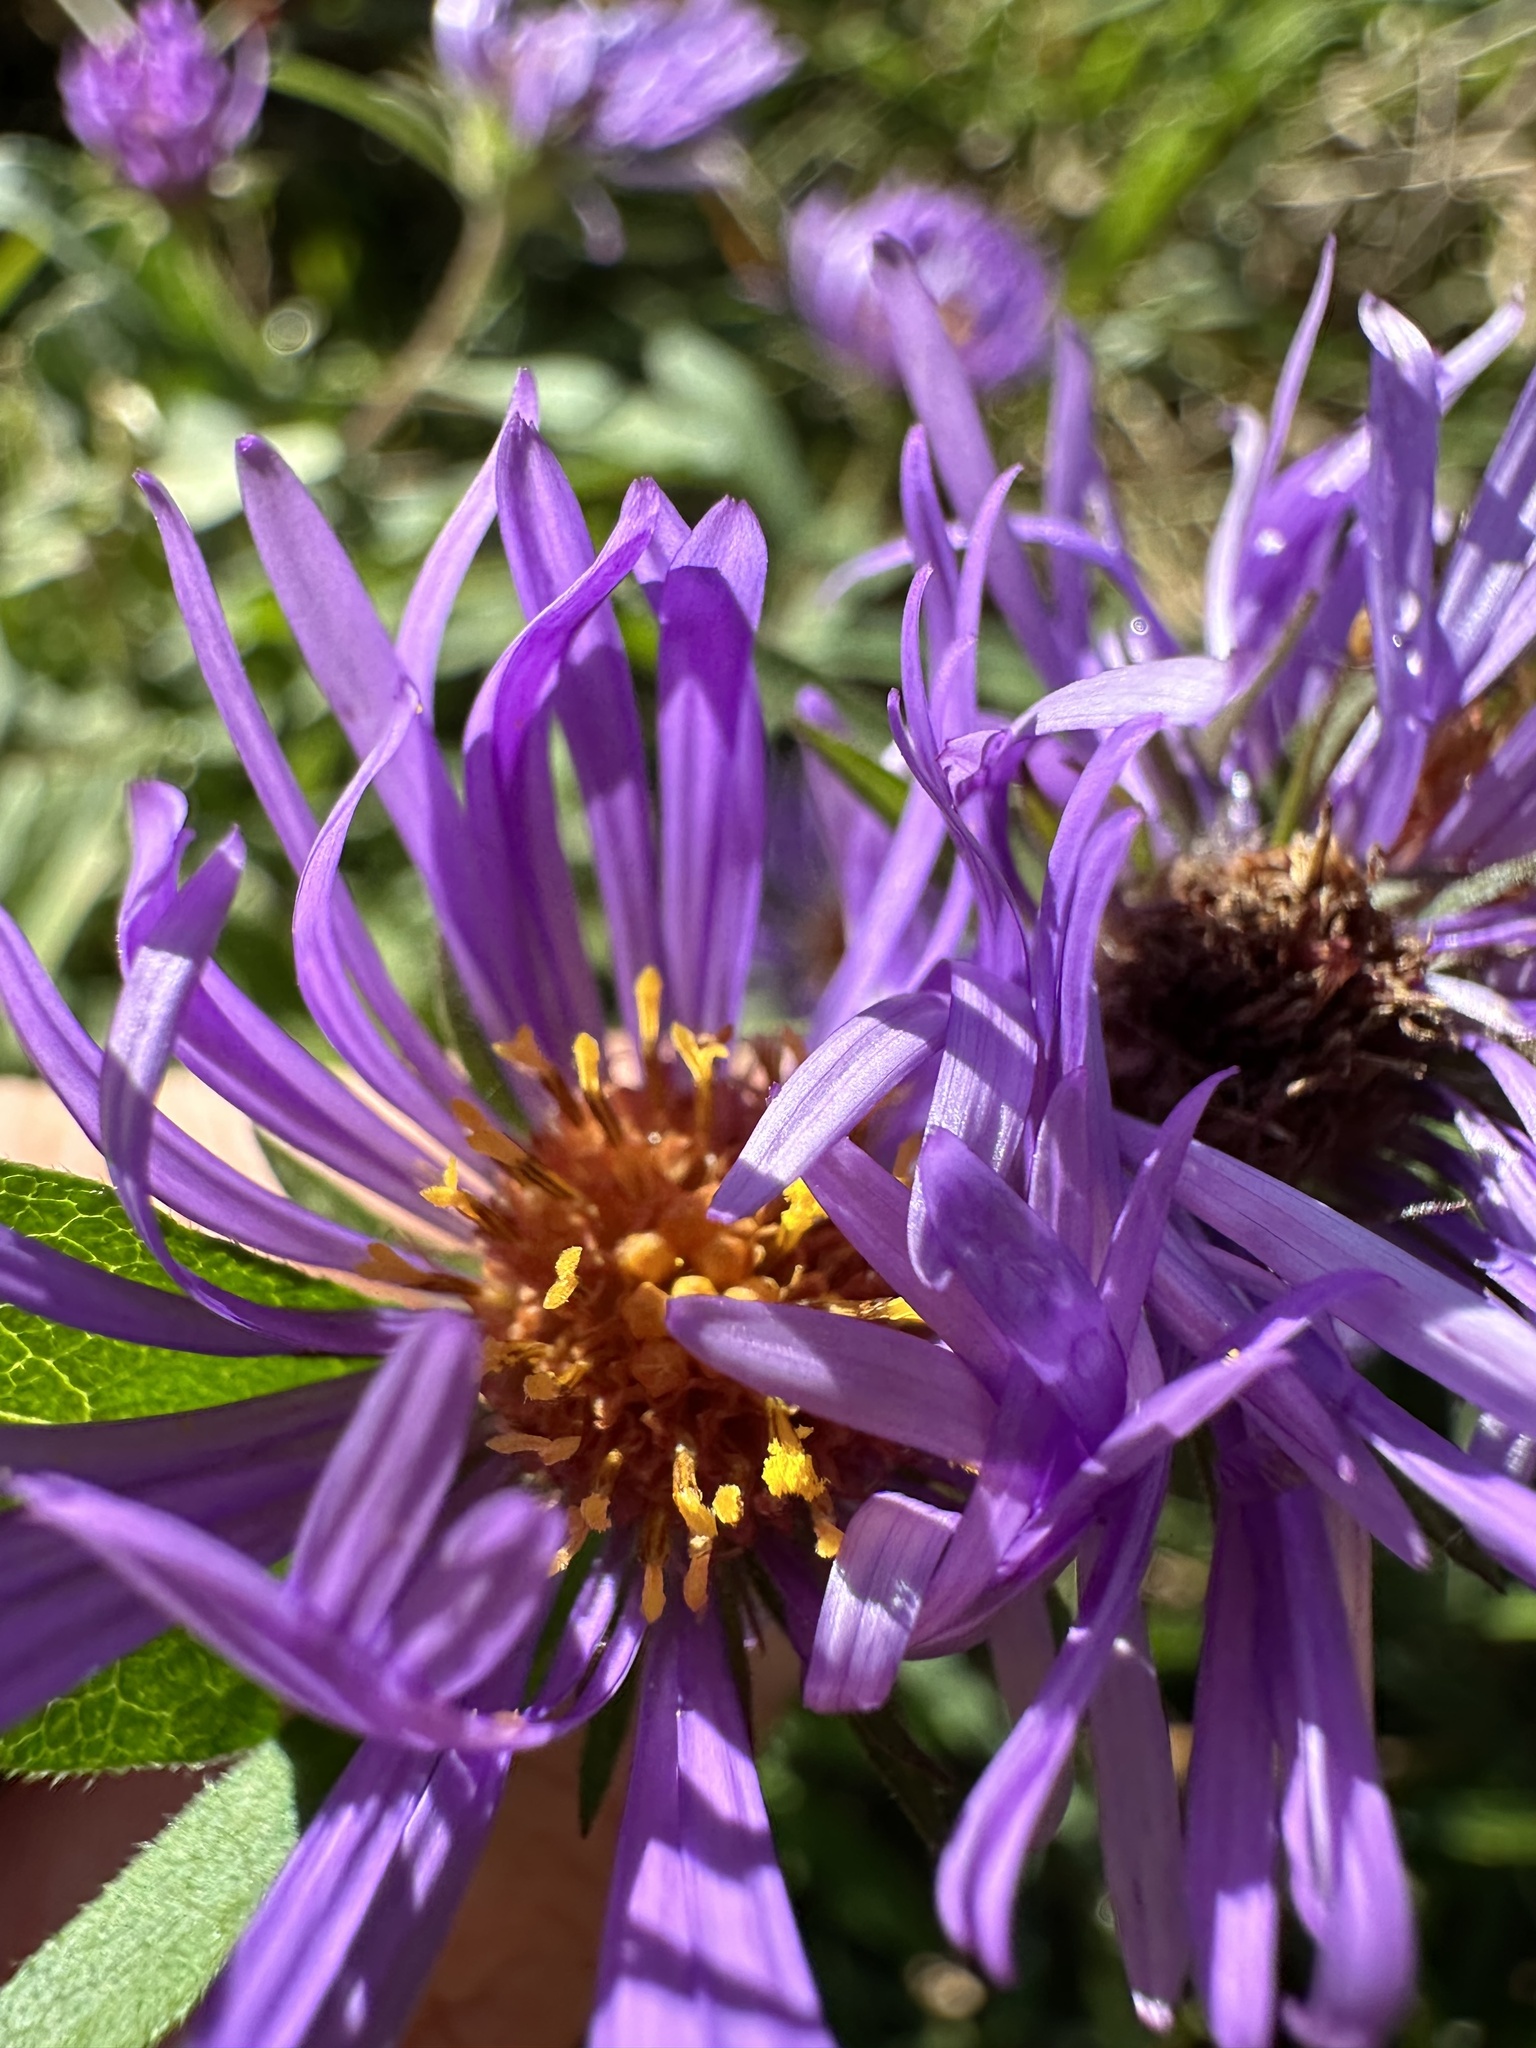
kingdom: Plantae
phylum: Tracheophyta
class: Magnoliopsida
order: Asterales
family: Asteraceae
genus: Symphyotrichum
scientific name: Symphyotrichum novae-angliae
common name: Michaelmas daisy
